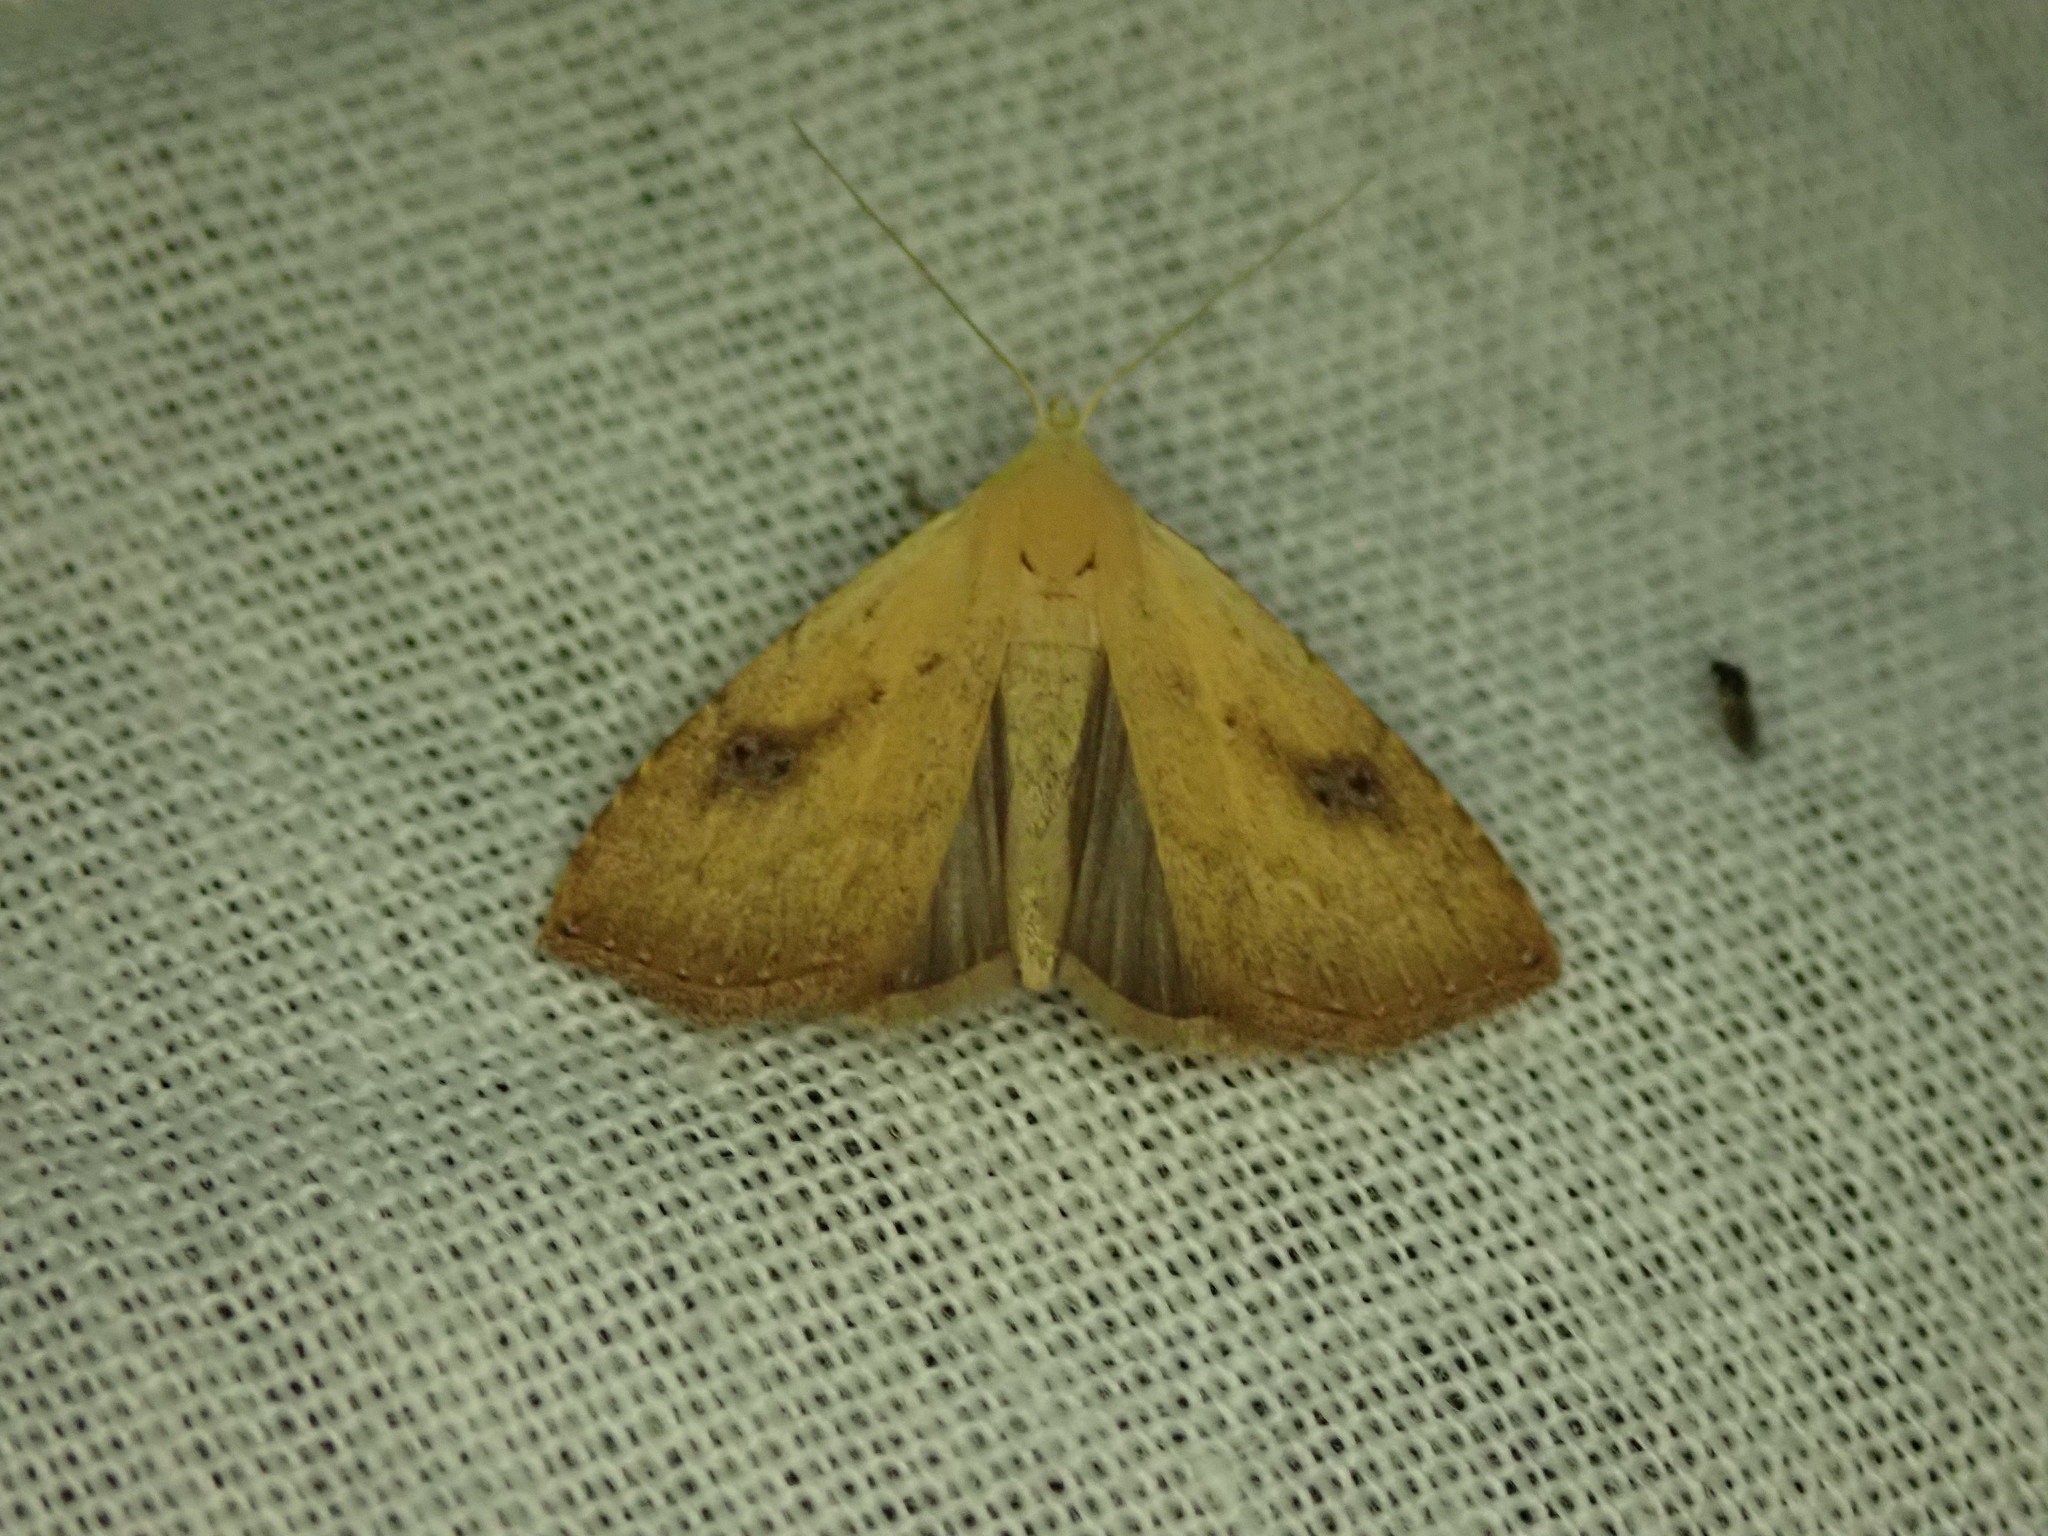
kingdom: Animalia
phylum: Arthropoda
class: Insecta
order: Lepidoptera
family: Erebidae
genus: Rivula
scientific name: Rivula sericealis
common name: Straw dot
